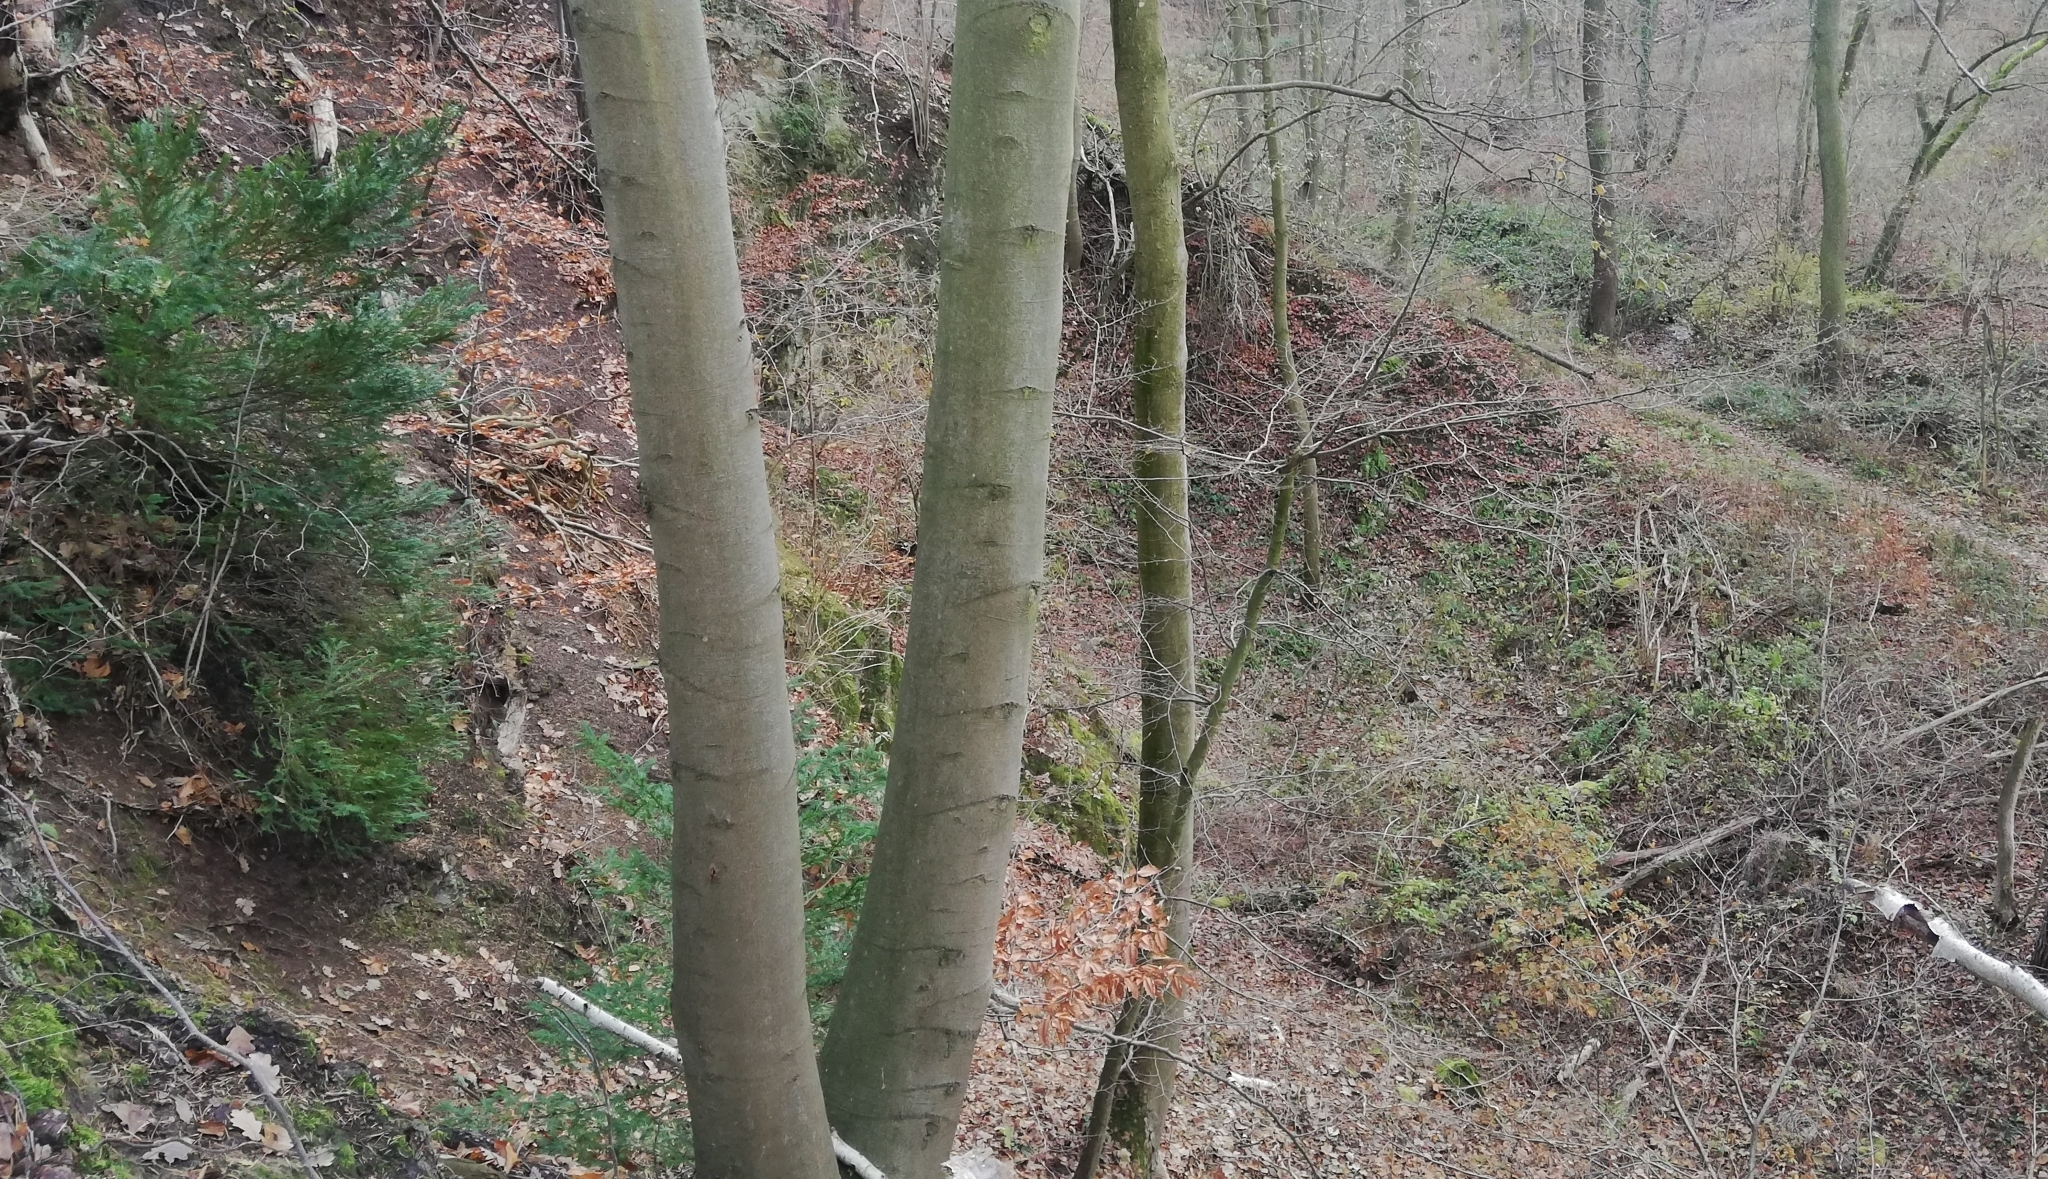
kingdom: Plantae
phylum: Tracheophyta
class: Pinopsida
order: Pinales
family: Taxaceae
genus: Taxus
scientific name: Taxus baccata
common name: Yew
